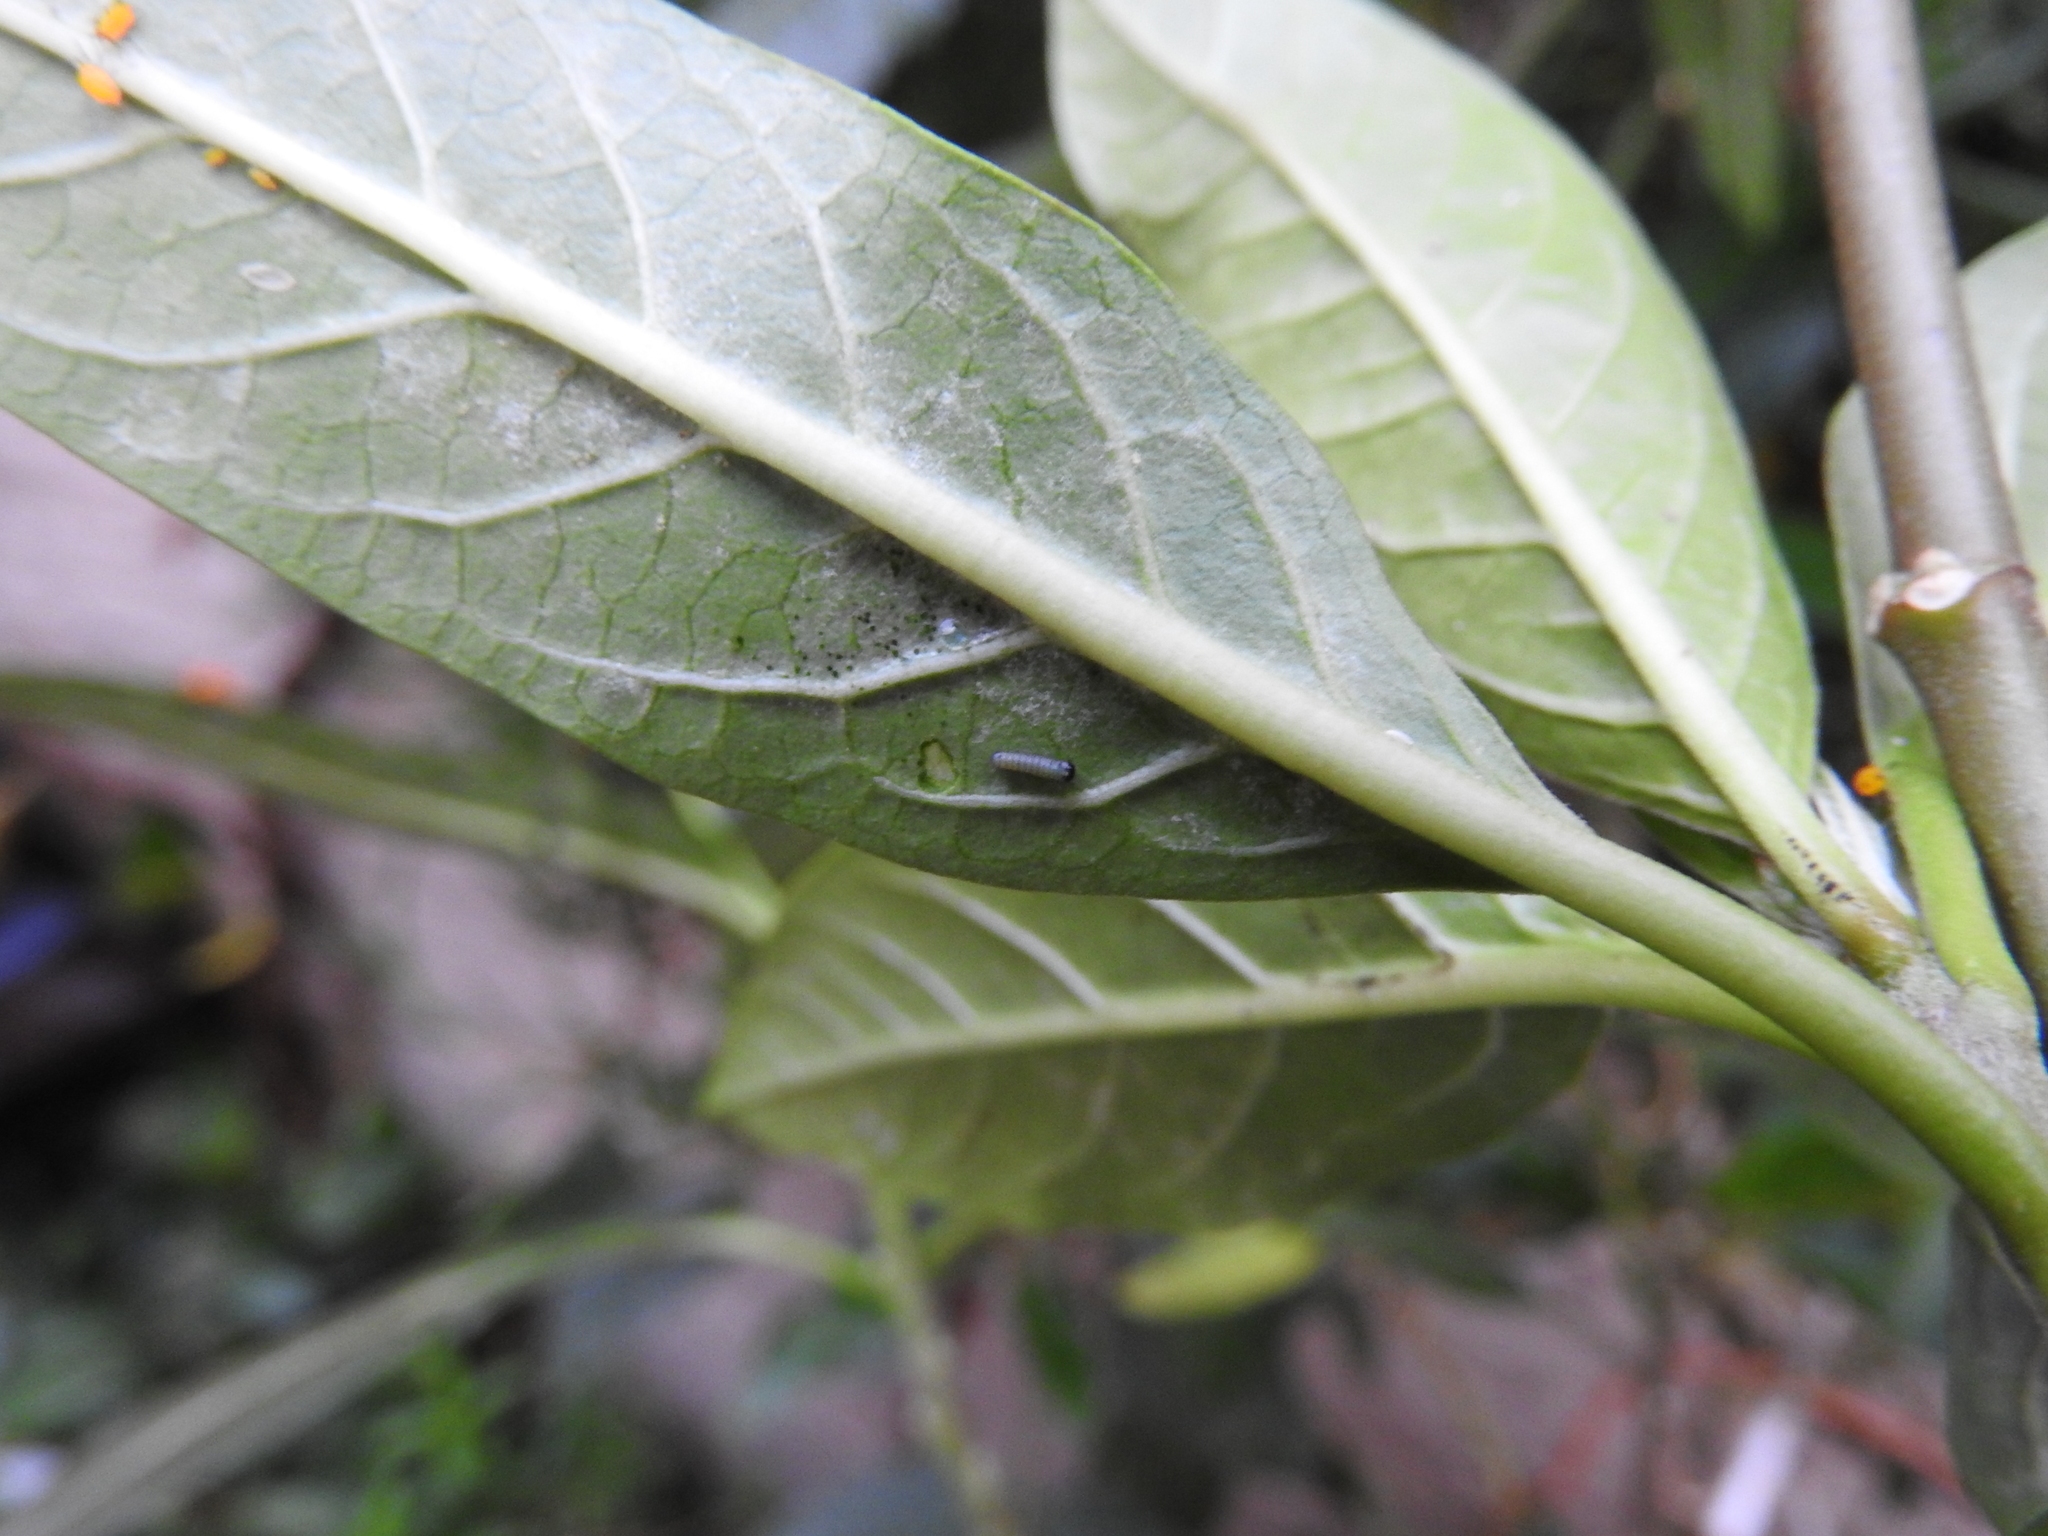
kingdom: Animalia
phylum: Arthropoda
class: Insecta
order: Lepidoptera
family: Nymphalidae
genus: Danaus
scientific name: Danaus plexippus
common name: Monarch
